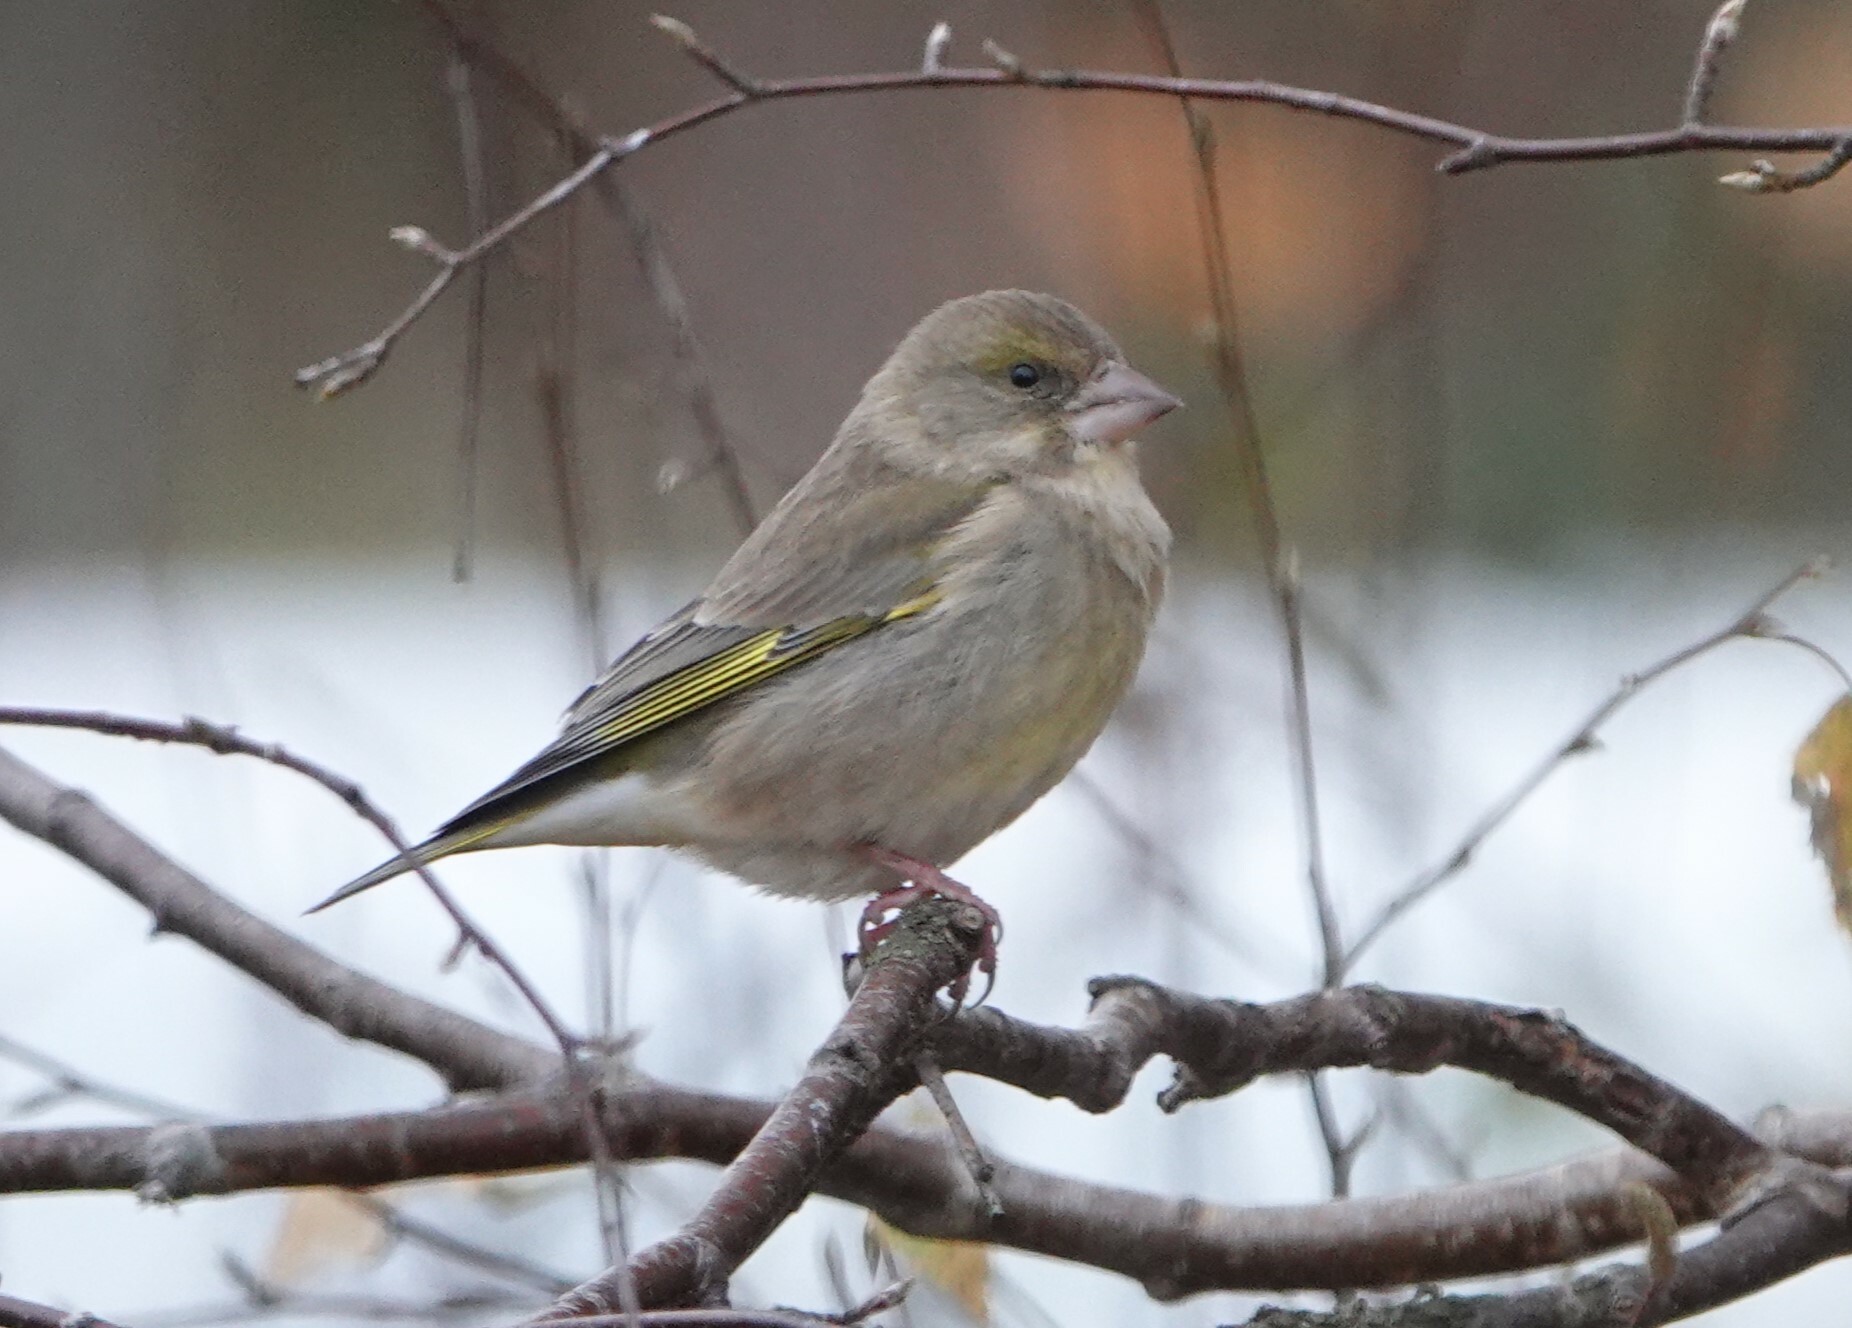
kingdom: Plantae
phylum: Tracheophyta
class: Liliopsida
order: Poales
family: Poaceae
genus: Chloris
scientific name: Chloris chloris
